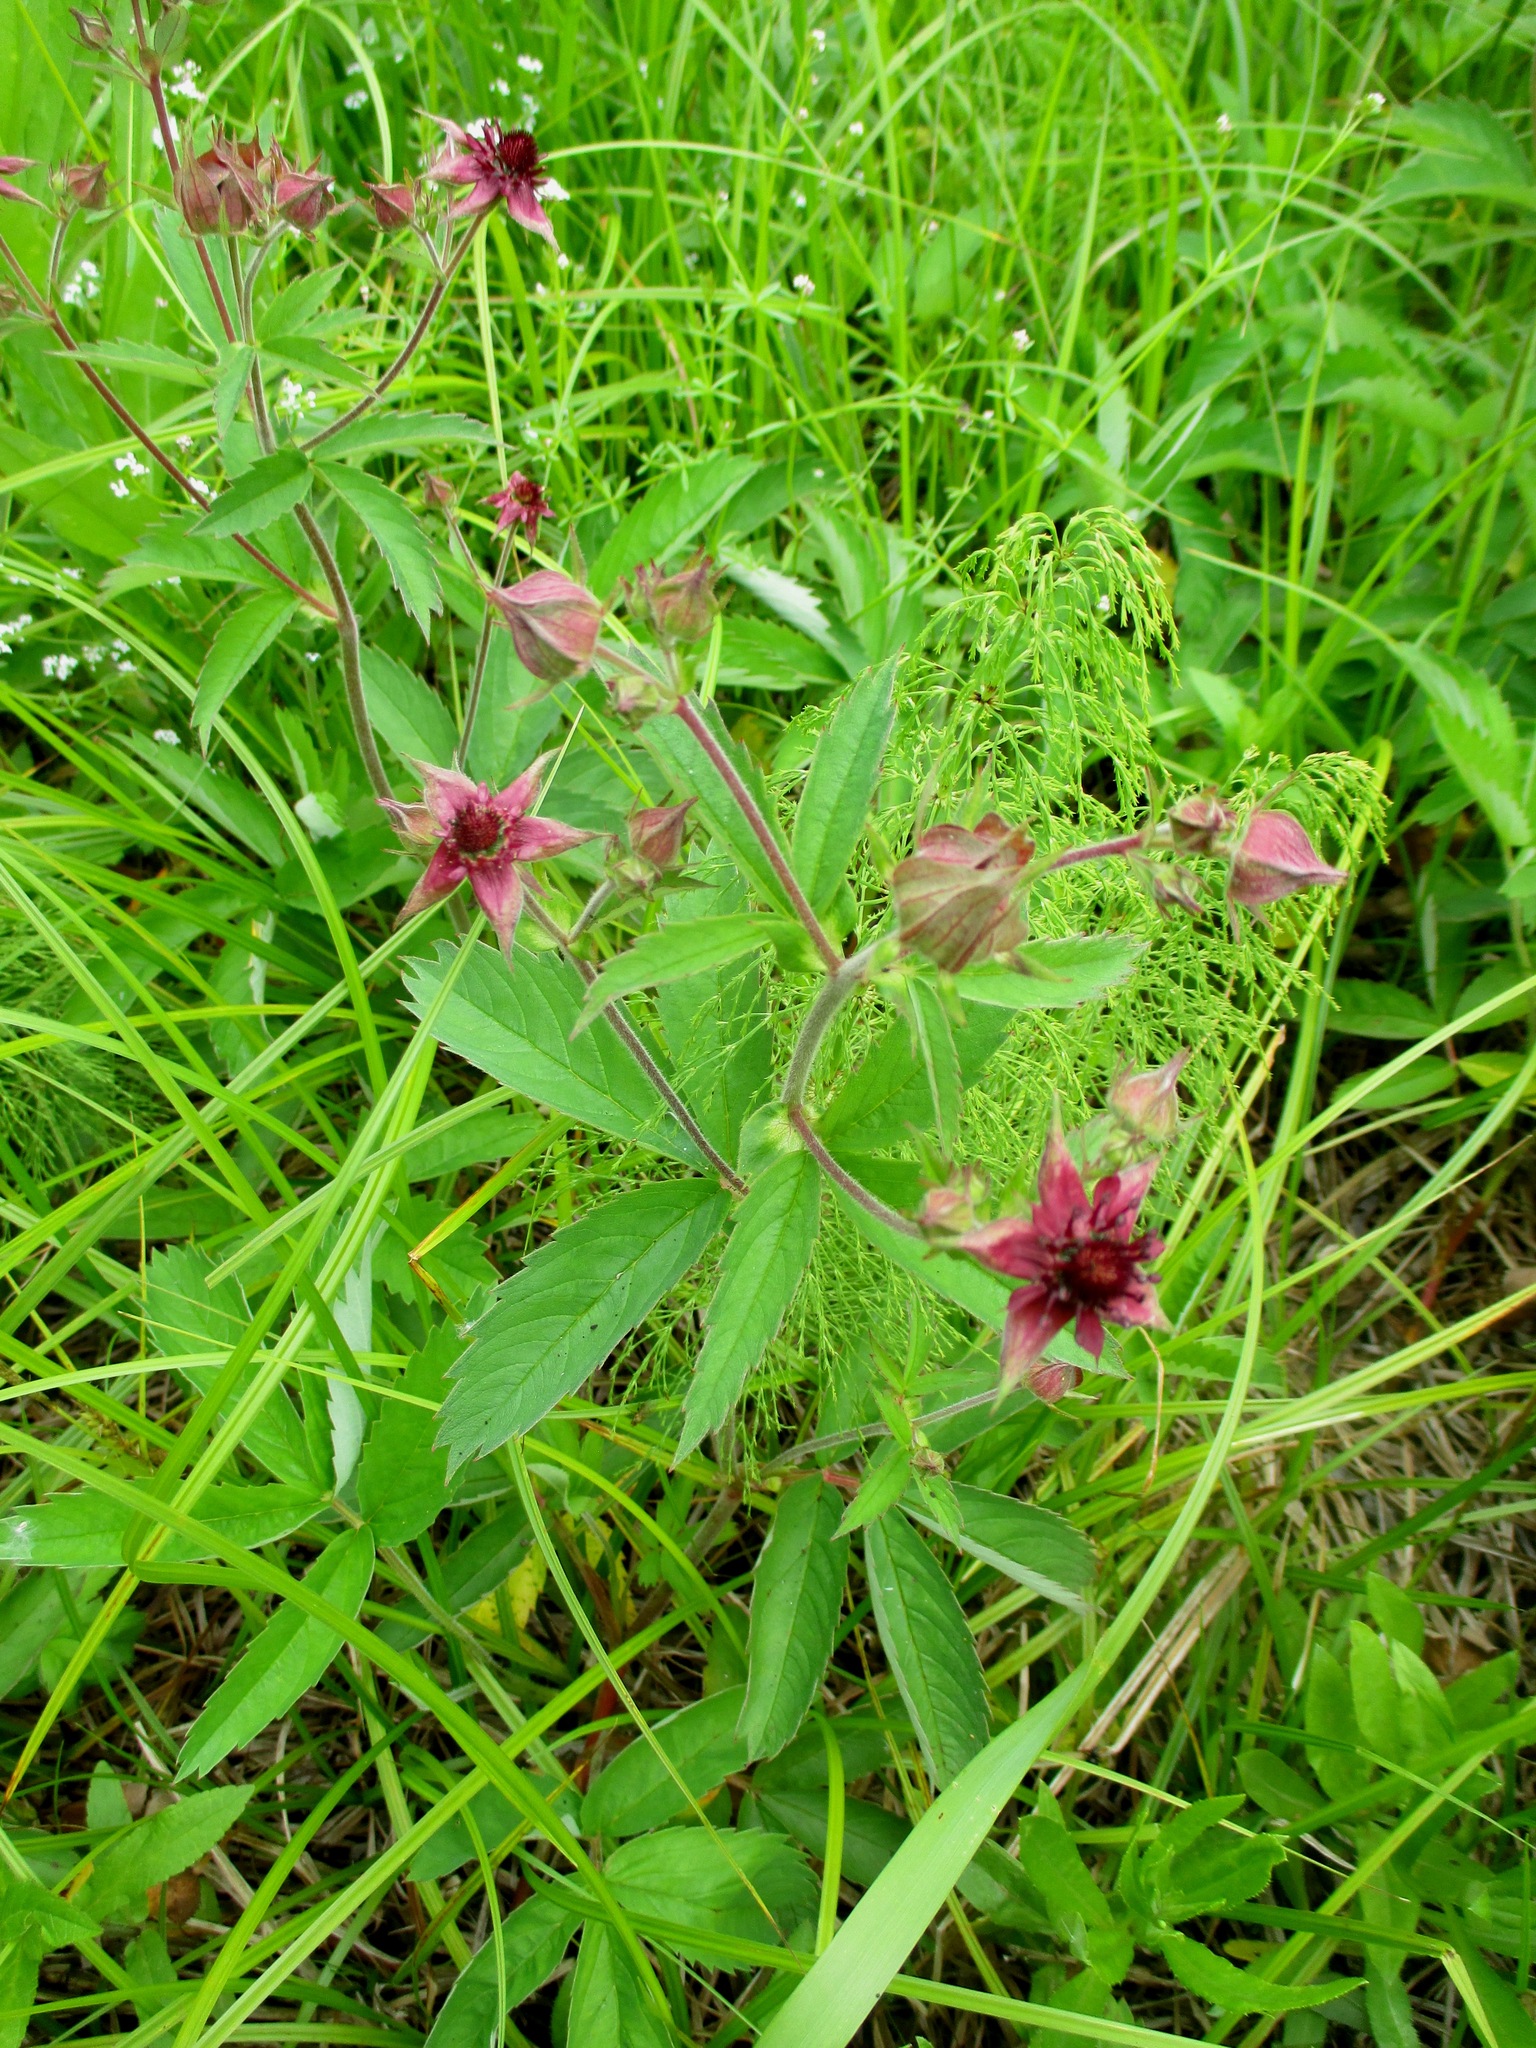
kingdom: Plantae
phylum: Tracheophyta
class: Magnoliopsida
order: Rosales
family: Rosaceae
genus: Comarum
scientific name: Comarum palustre
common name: Marsh cinquefoil
